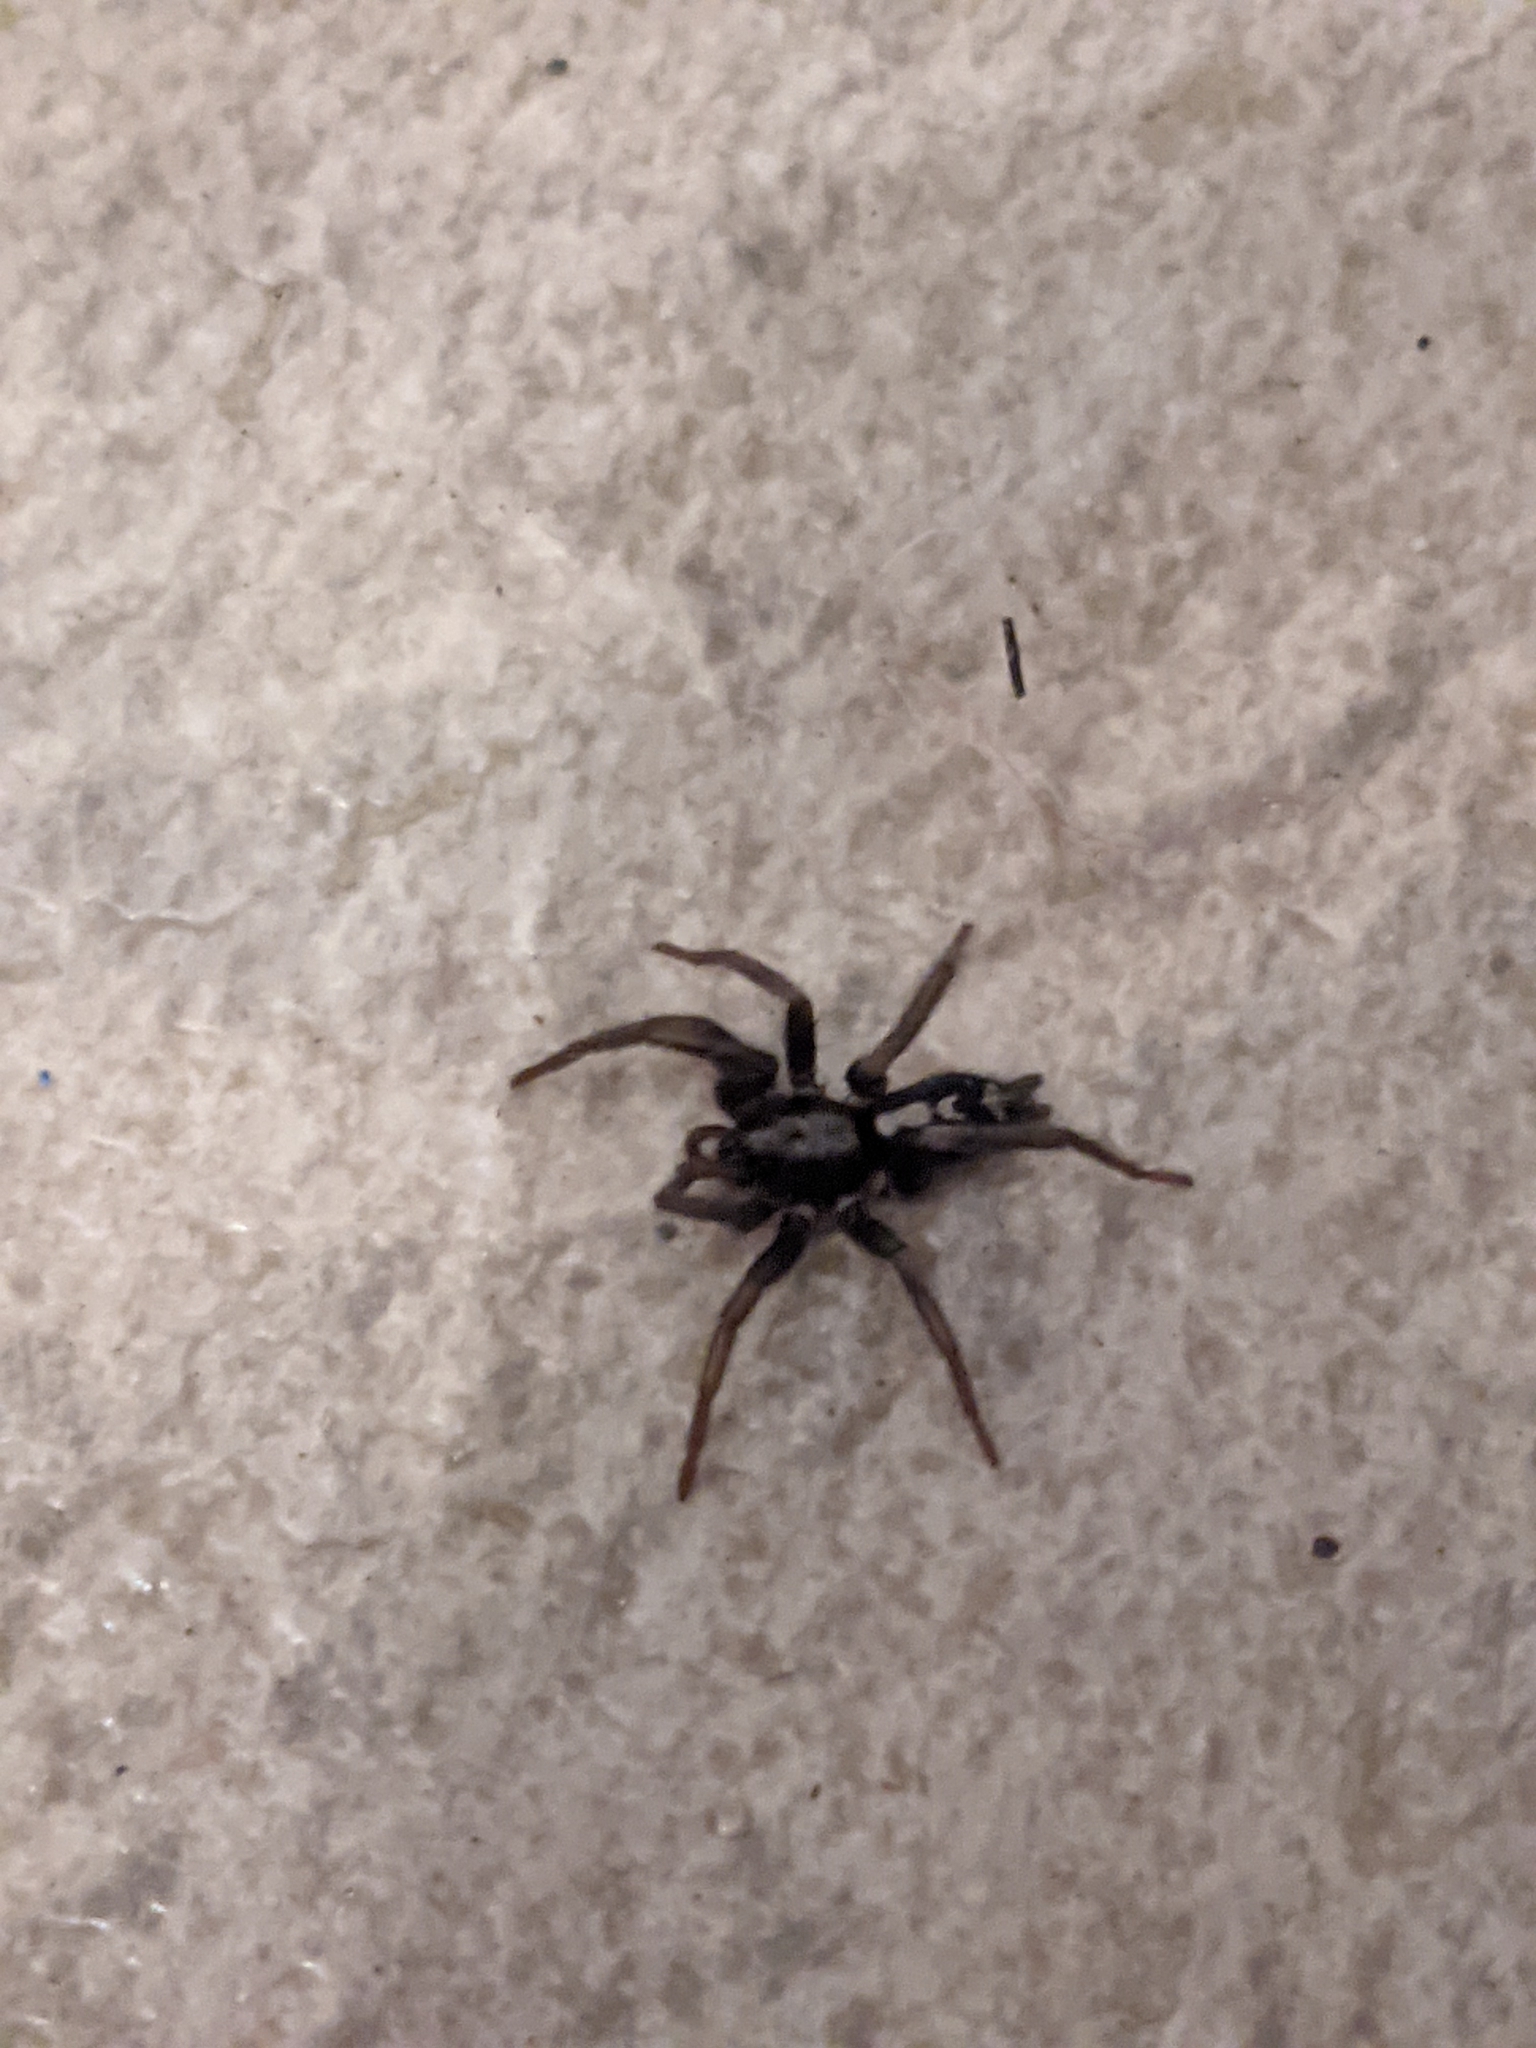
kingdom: Animalia
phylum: Arthropoda
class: Arachnida
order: Araneae
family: Gnaphosidae
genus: Herpyllus
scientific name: Herpyllus ecclesiasticus
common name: Eastern parson spider
